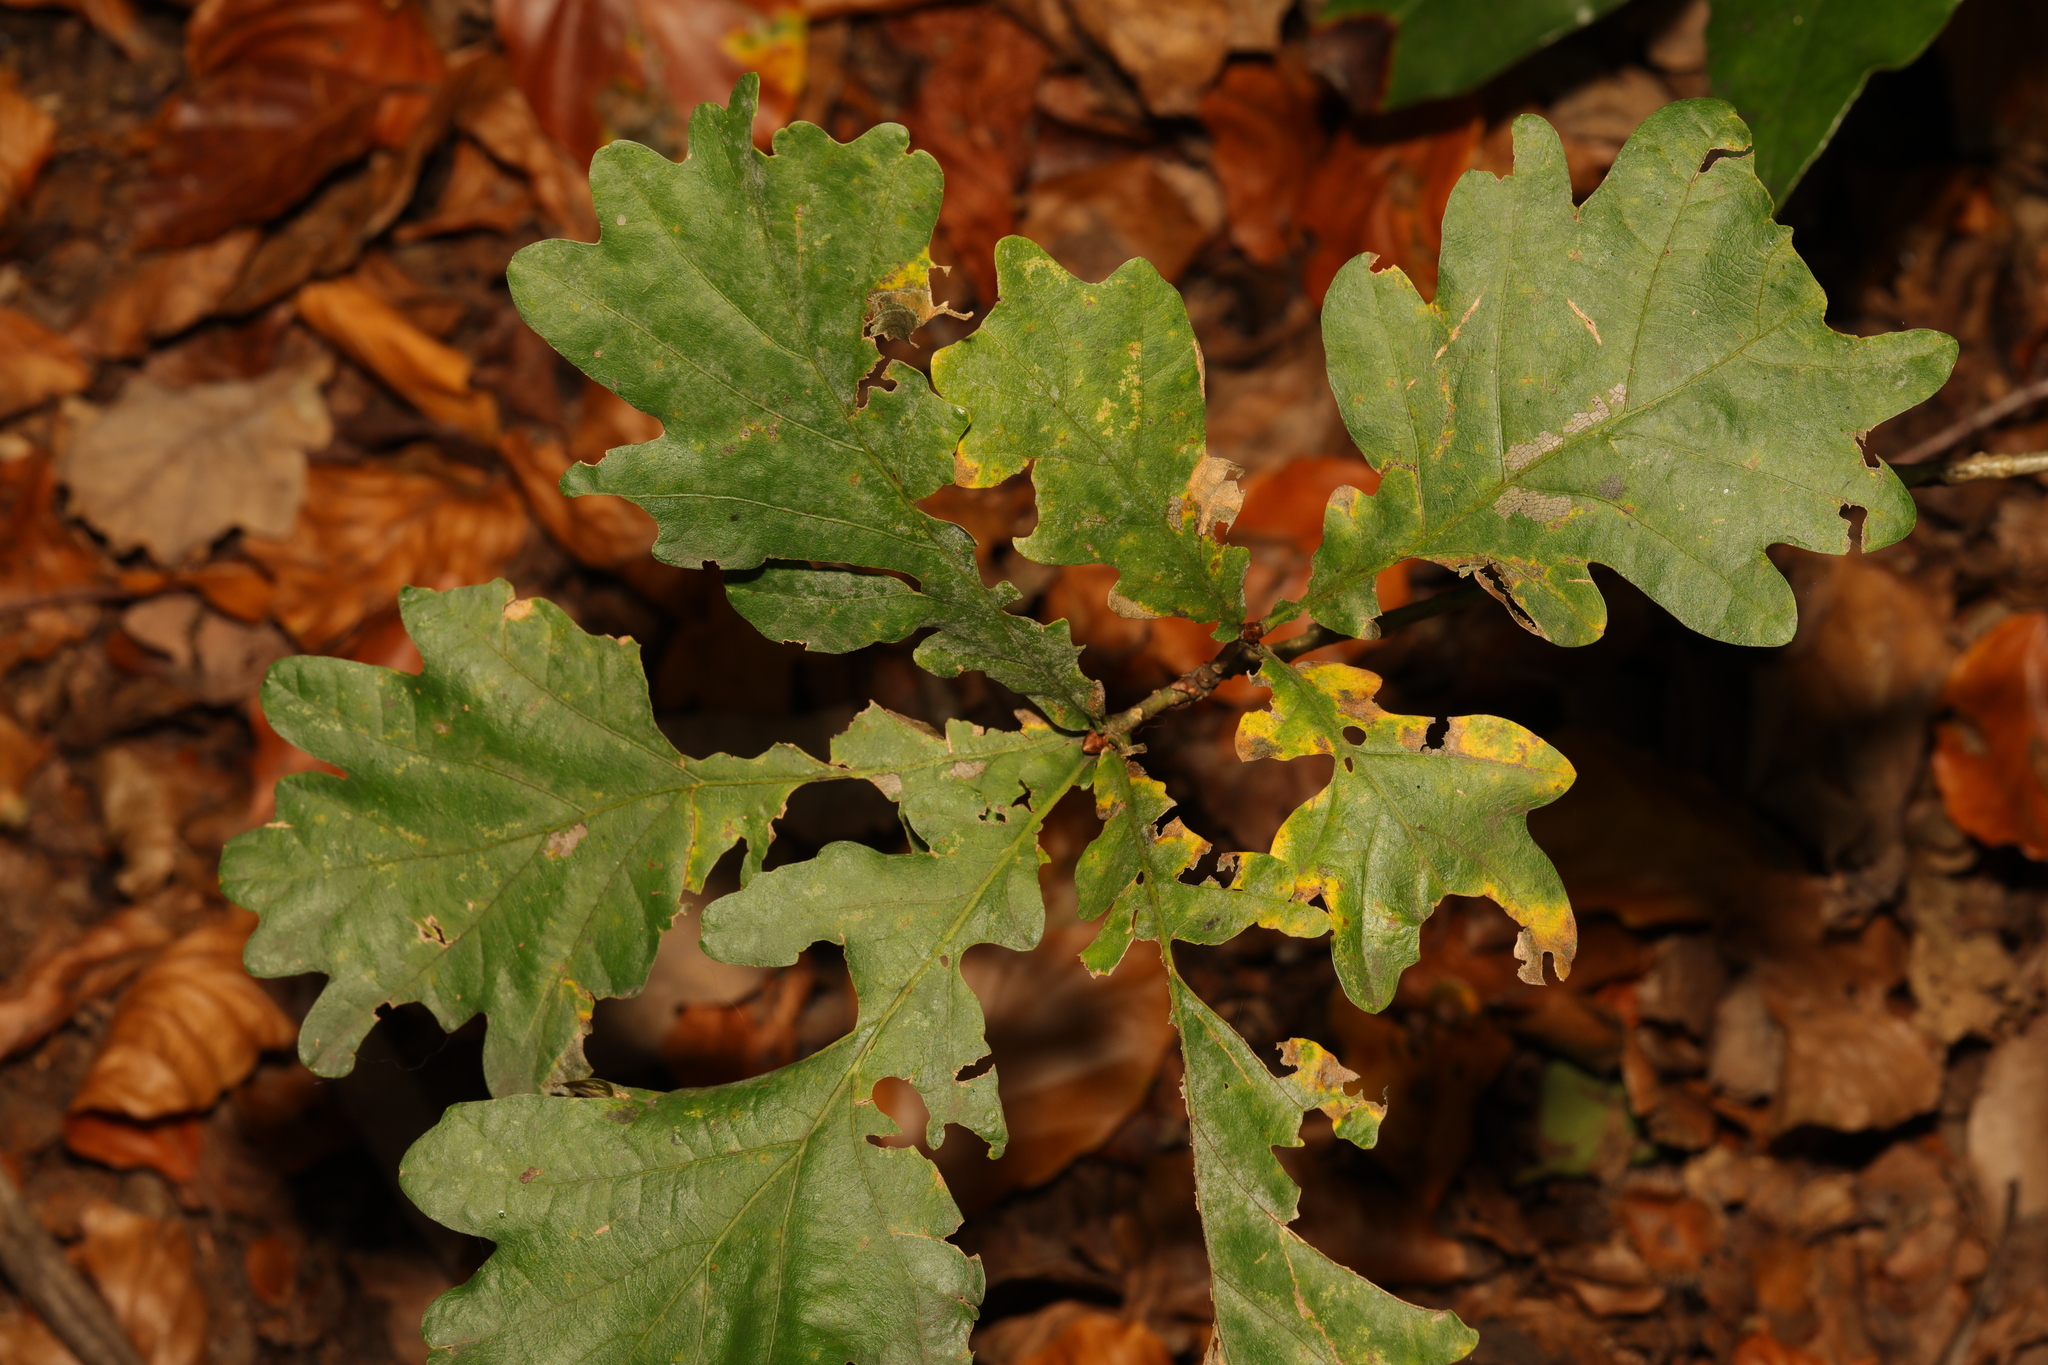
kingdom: Plantae
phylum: Tracheophyta
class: Magnoliopsida
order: Fagales
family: Fagaceae
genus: Quercus
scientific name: Quercus robur
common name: Pedunculate oak
